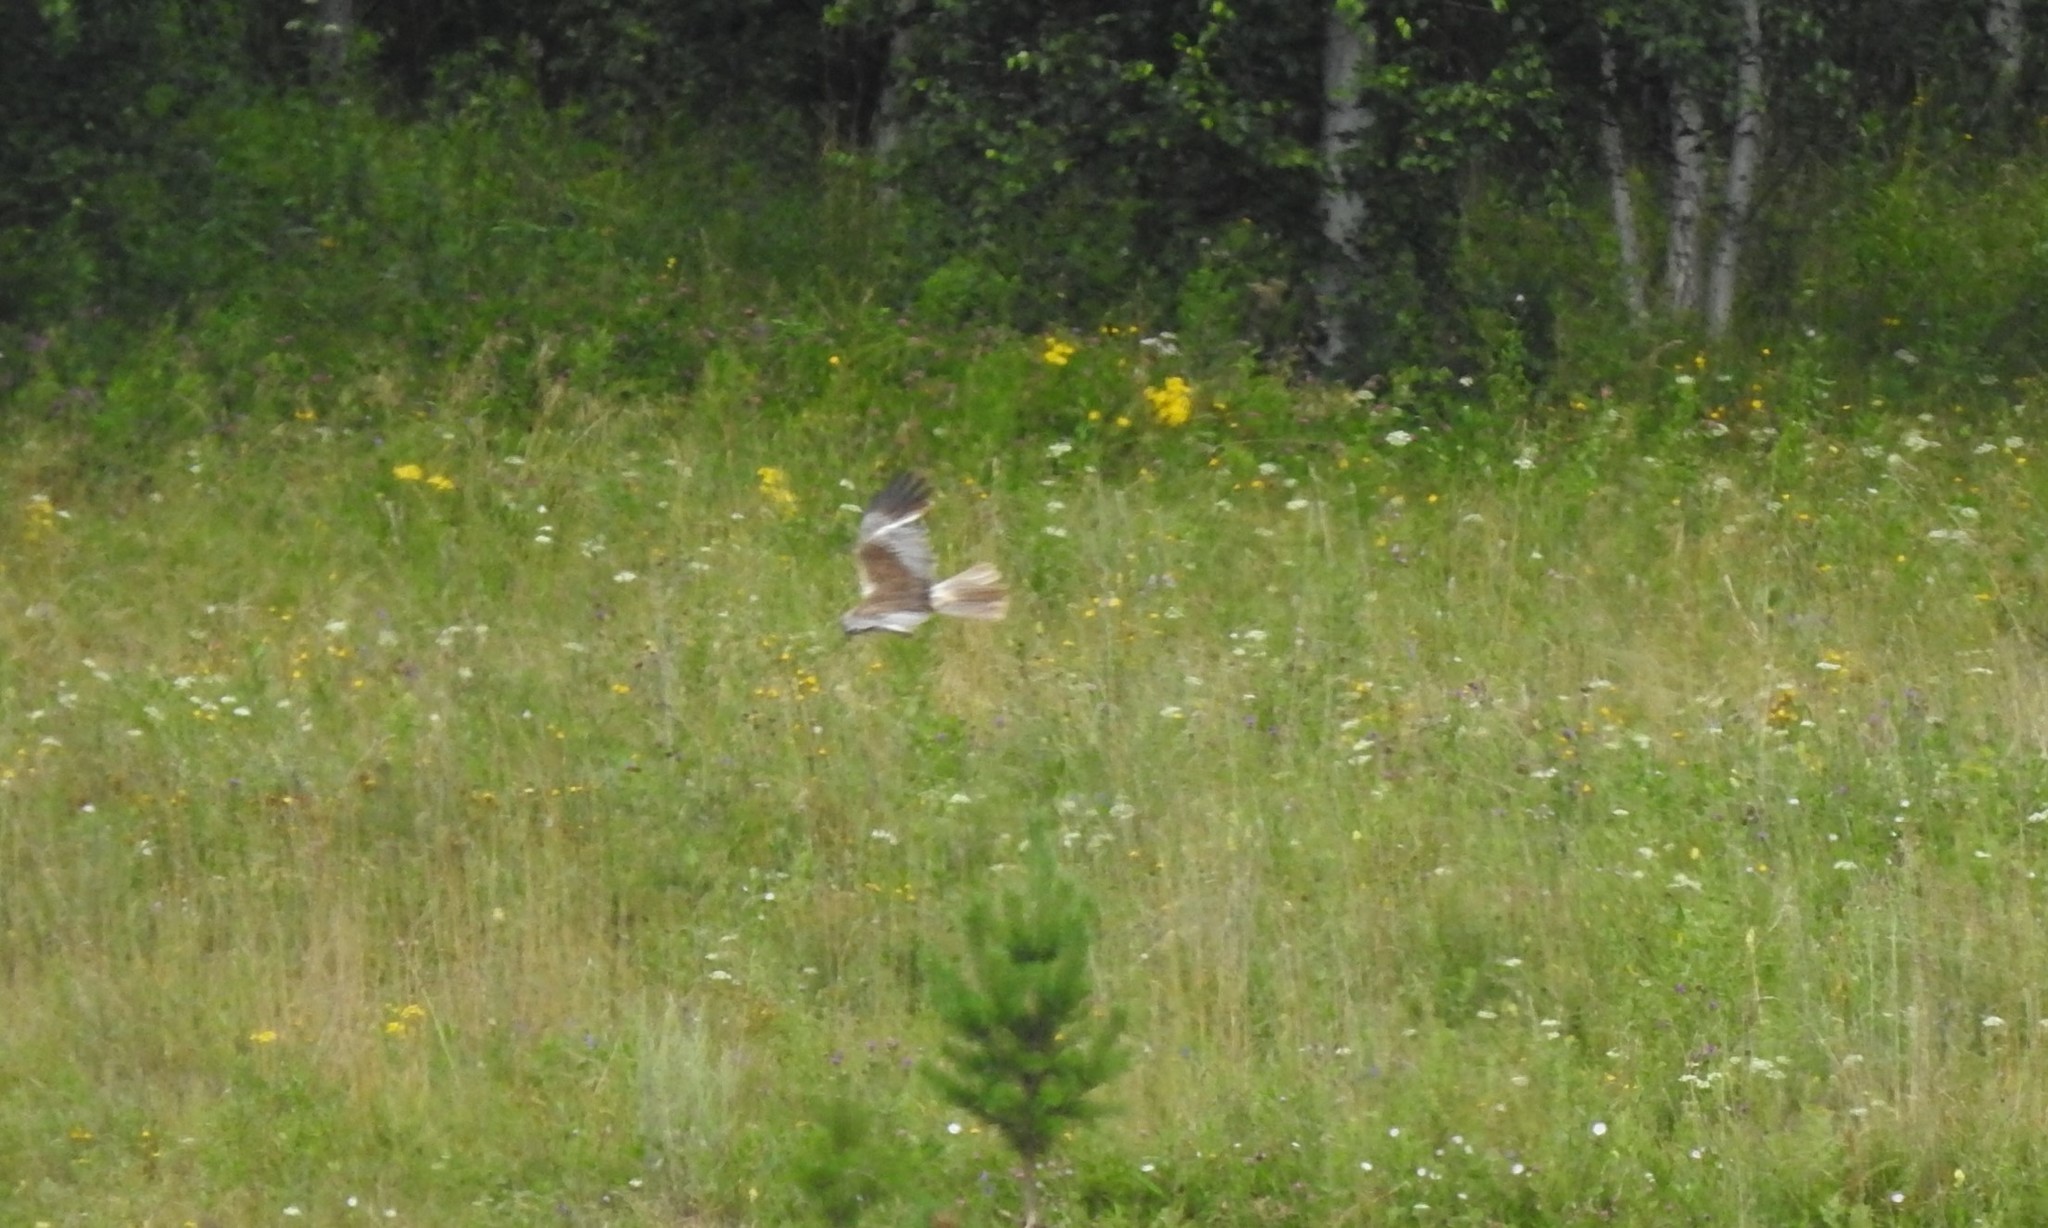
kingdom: Animalia
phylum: Chordata
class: Aves
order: Accipitriformes
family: Accipitridae
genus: Circus
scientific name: Circus aeruginosus
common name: Western marsh harrier
